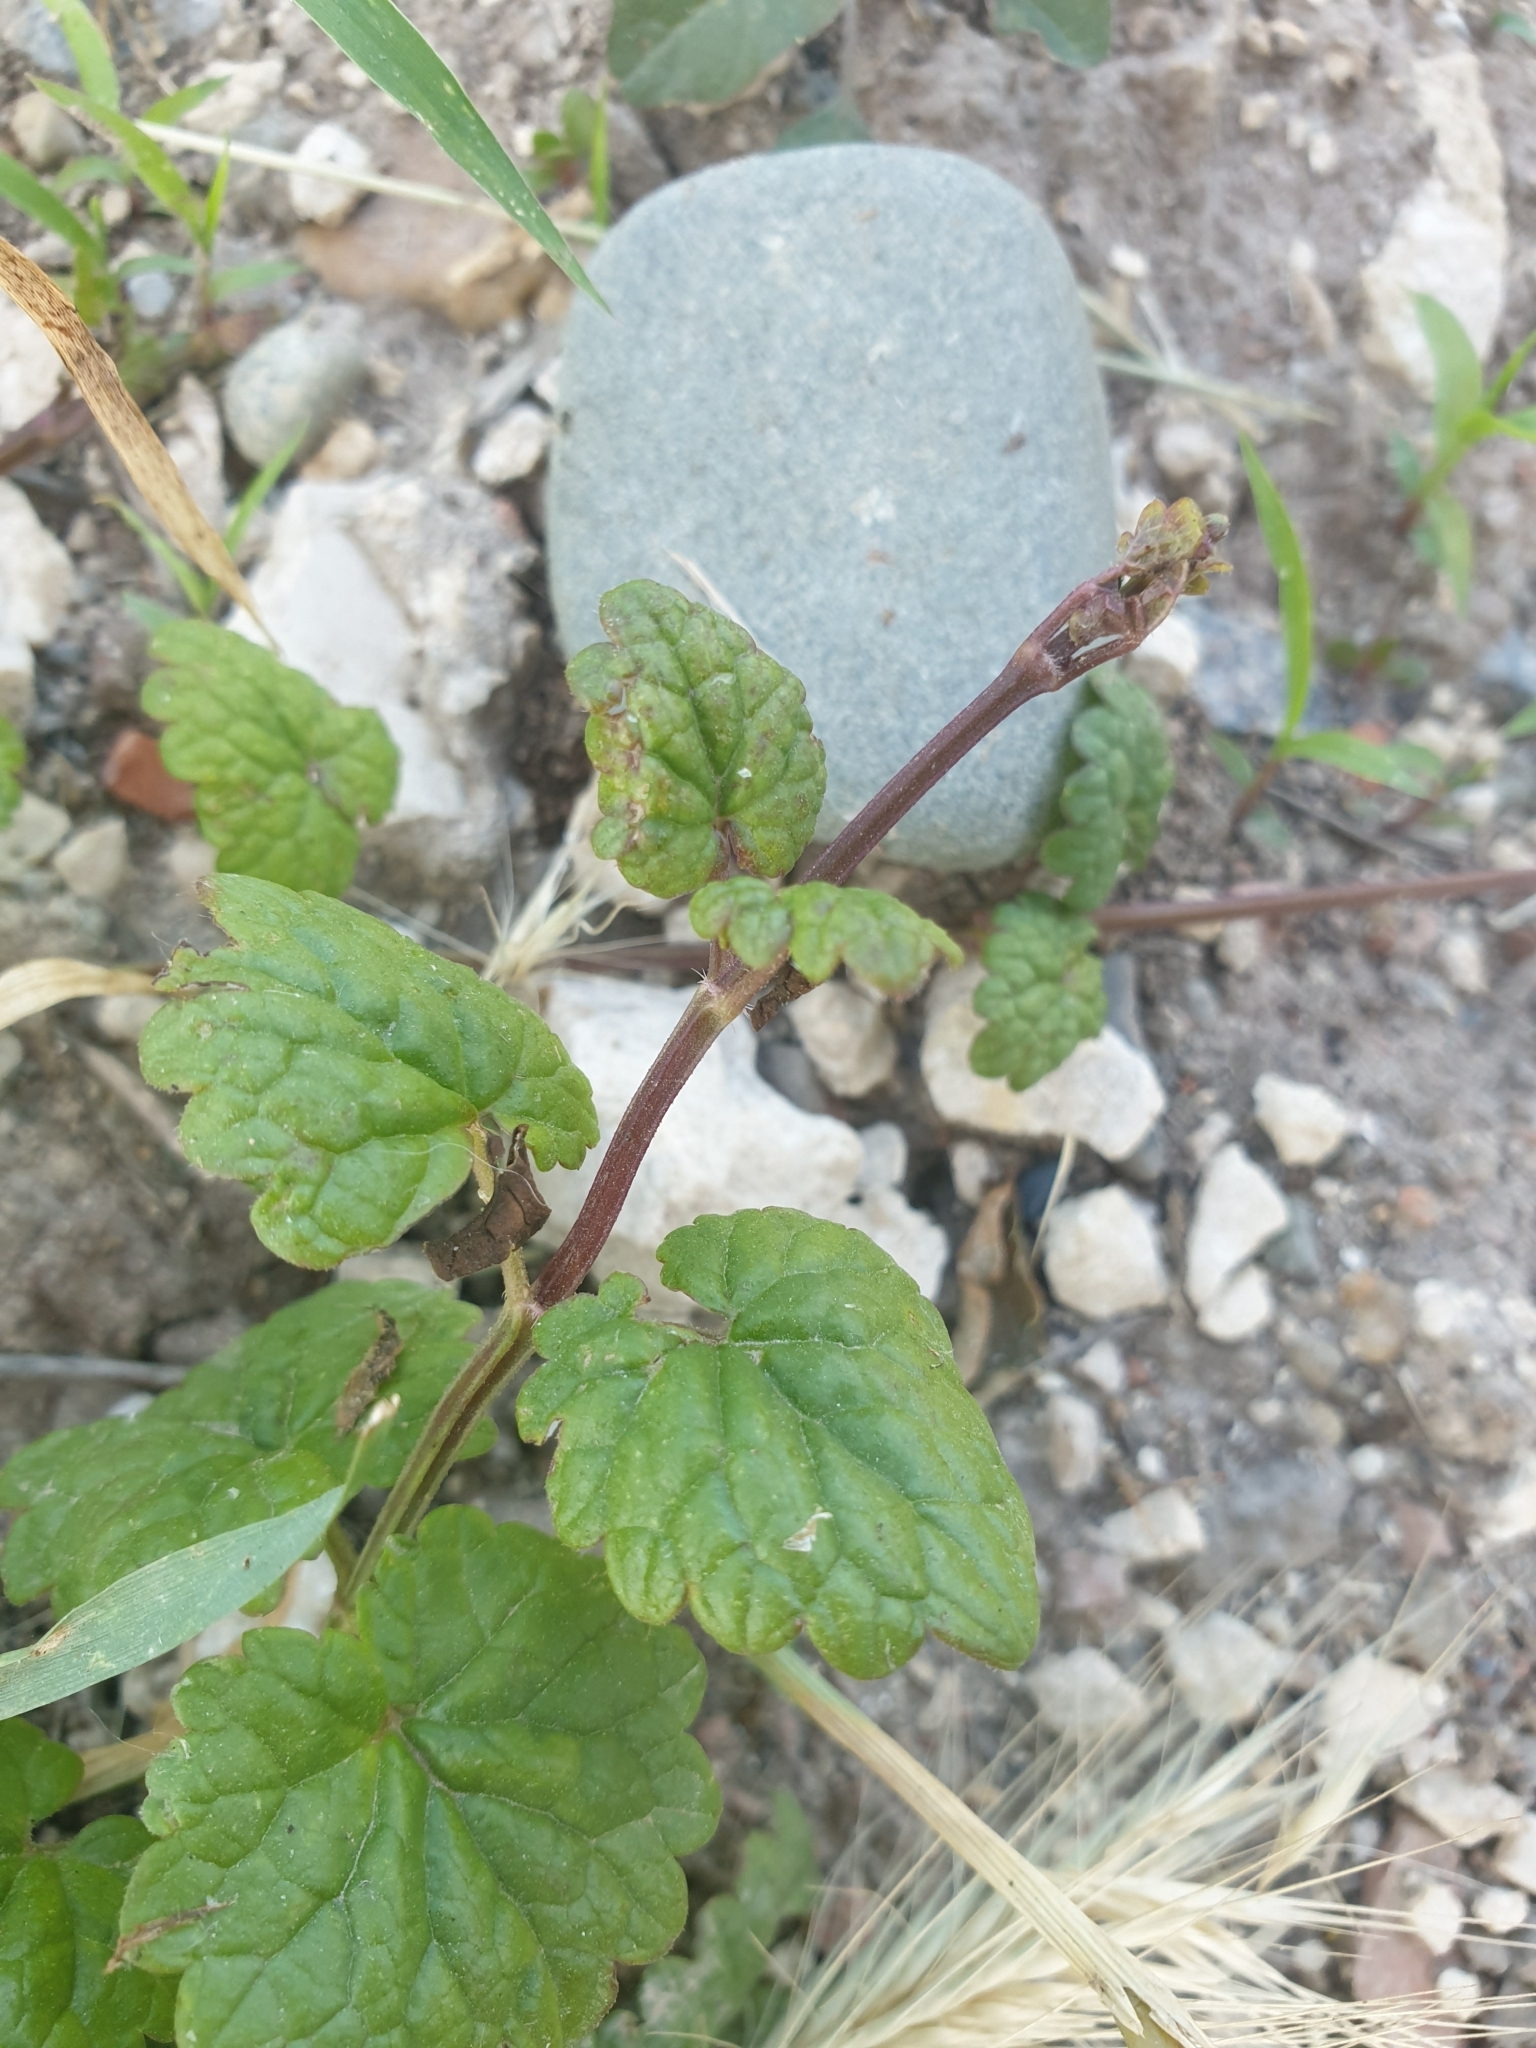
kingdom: Plantae
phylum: Tracheophyta
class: Magnoliopsida
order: Lamiales
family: Lamiaceae
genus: Glechoma
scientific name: Glechoma hederacea
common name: Ground ivy
